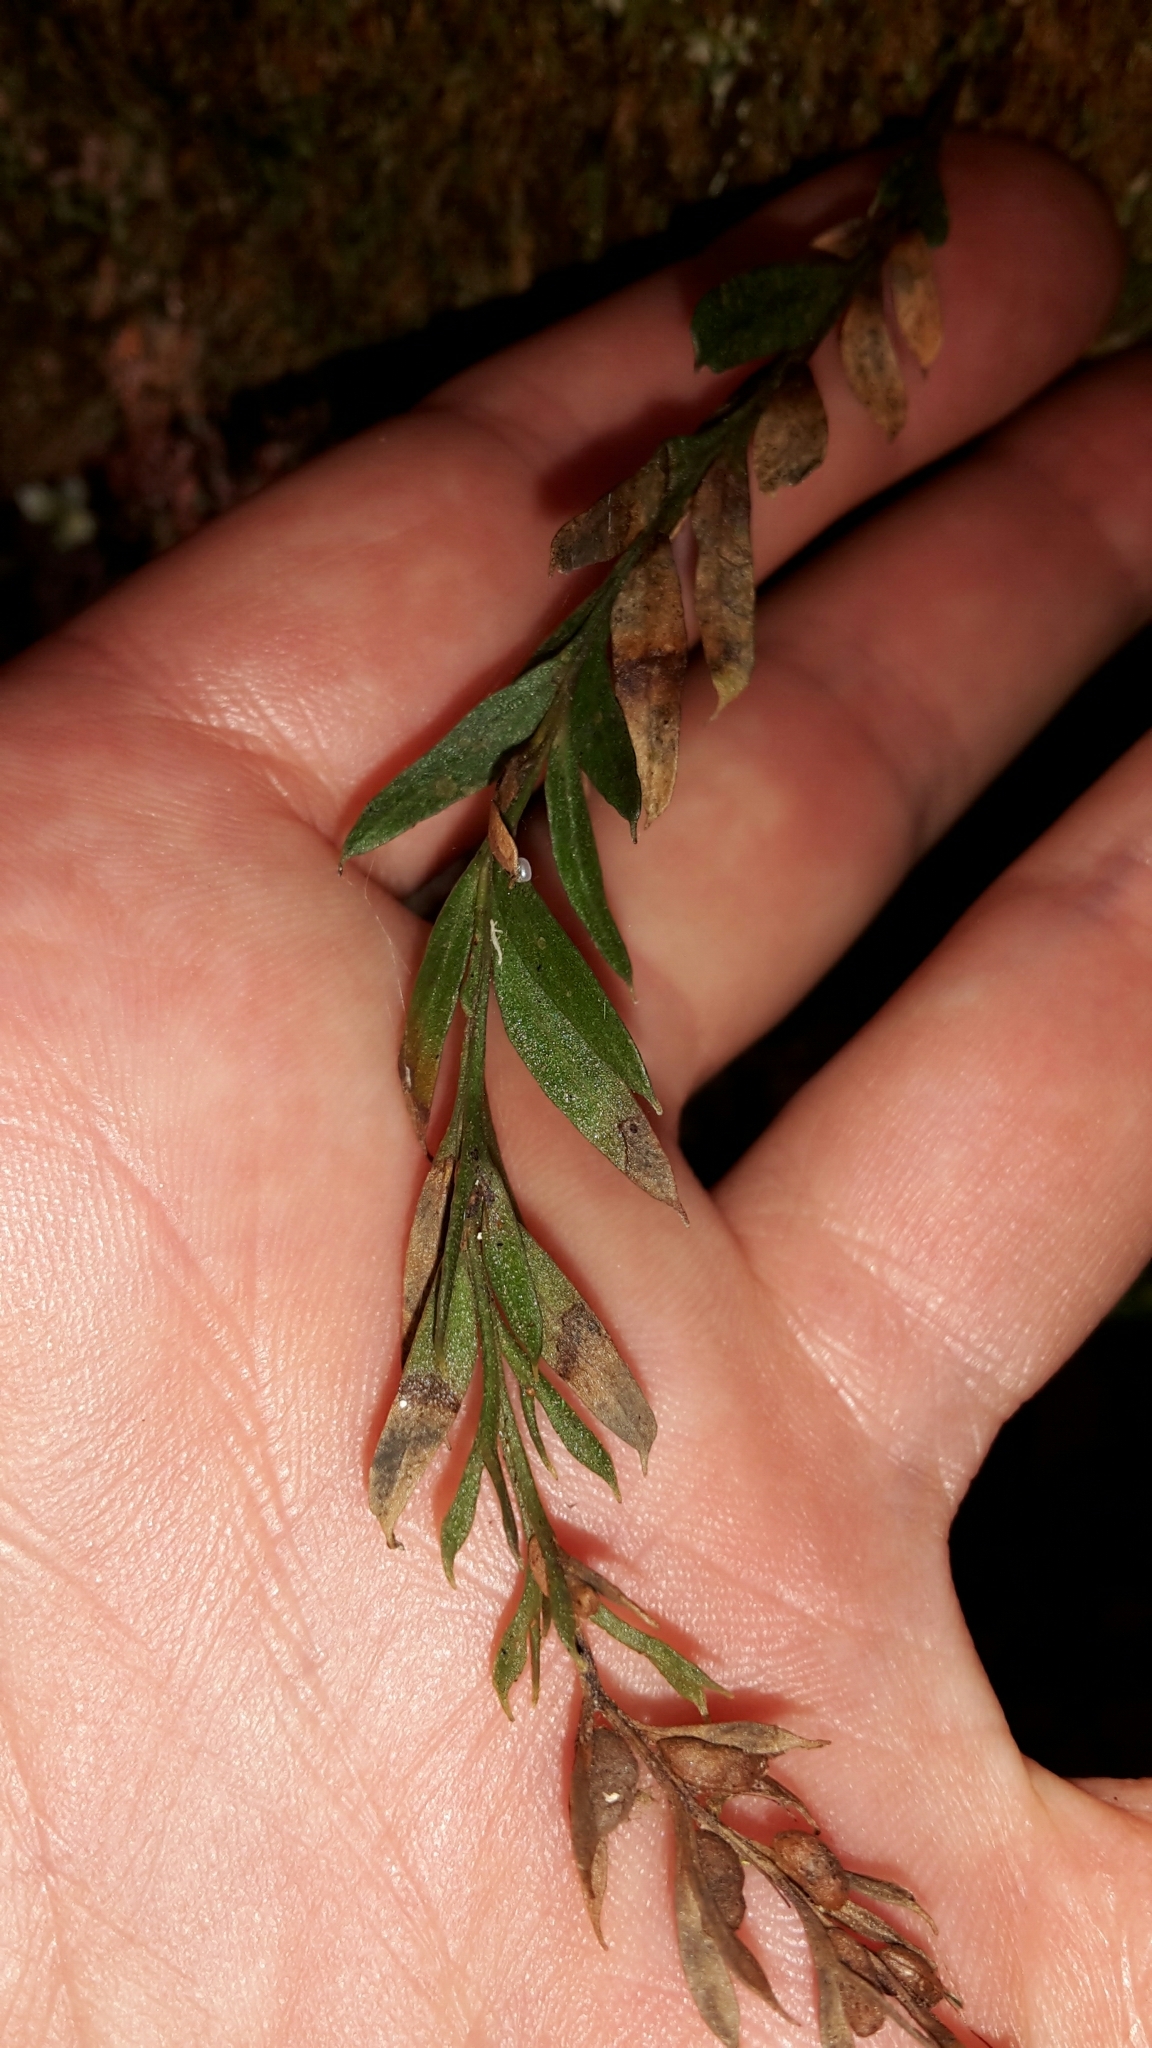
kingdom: Plantae
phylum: Tracheophyta
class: Polypodiopsida
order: Psilotales
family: Psilotaceae
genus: Tmesipteris
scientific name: Tmesipteris elongata
